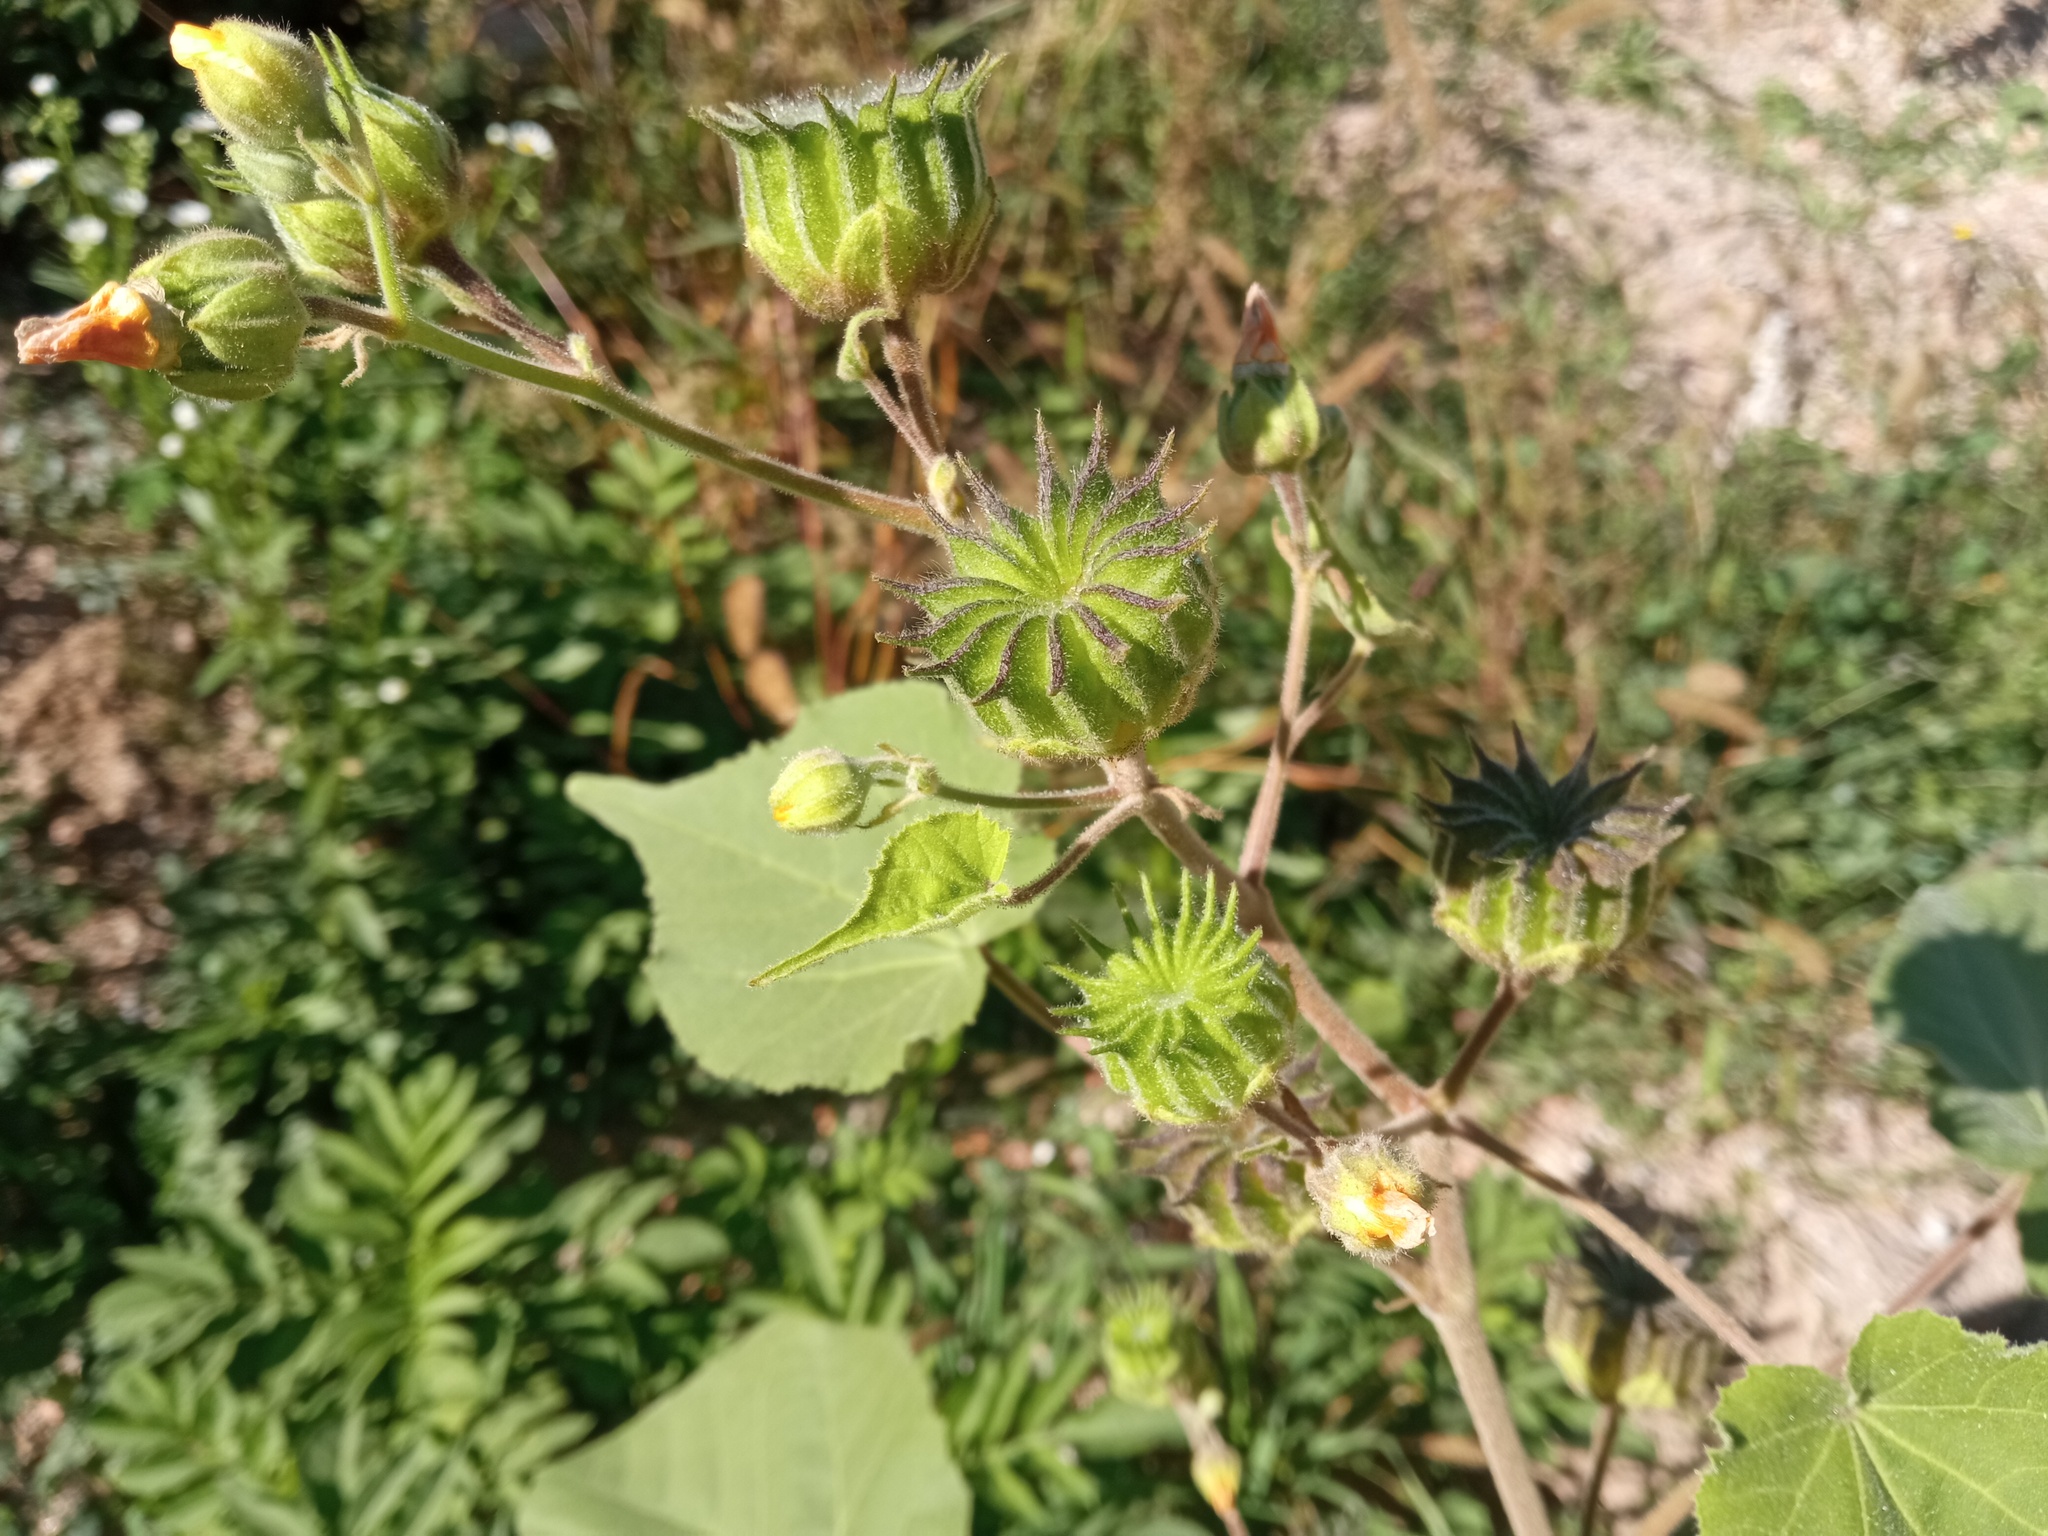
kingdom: Plantae
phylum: Tracheophyta
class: Magnoliopsida
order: Malvales
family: Malvaceae
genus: Abutilon
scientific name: Abutilon theophrasti
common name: Velvetleaf
